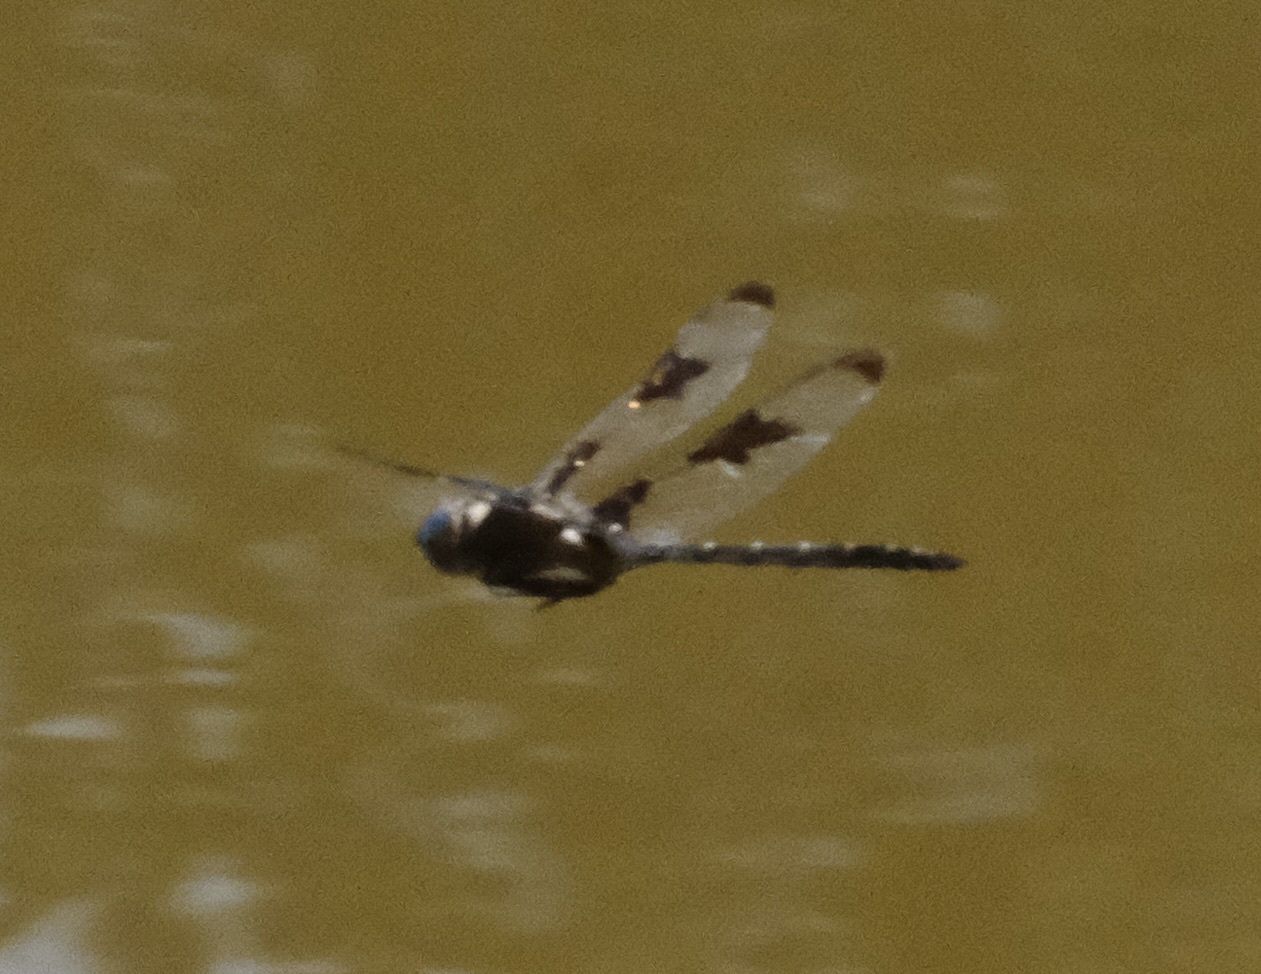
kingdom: Animalia
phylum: Arthropoda
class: Insecta
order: Odonata
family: Corduliidae
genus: Epitheca
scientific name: Epitheca princeps
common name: Prince baskettail
